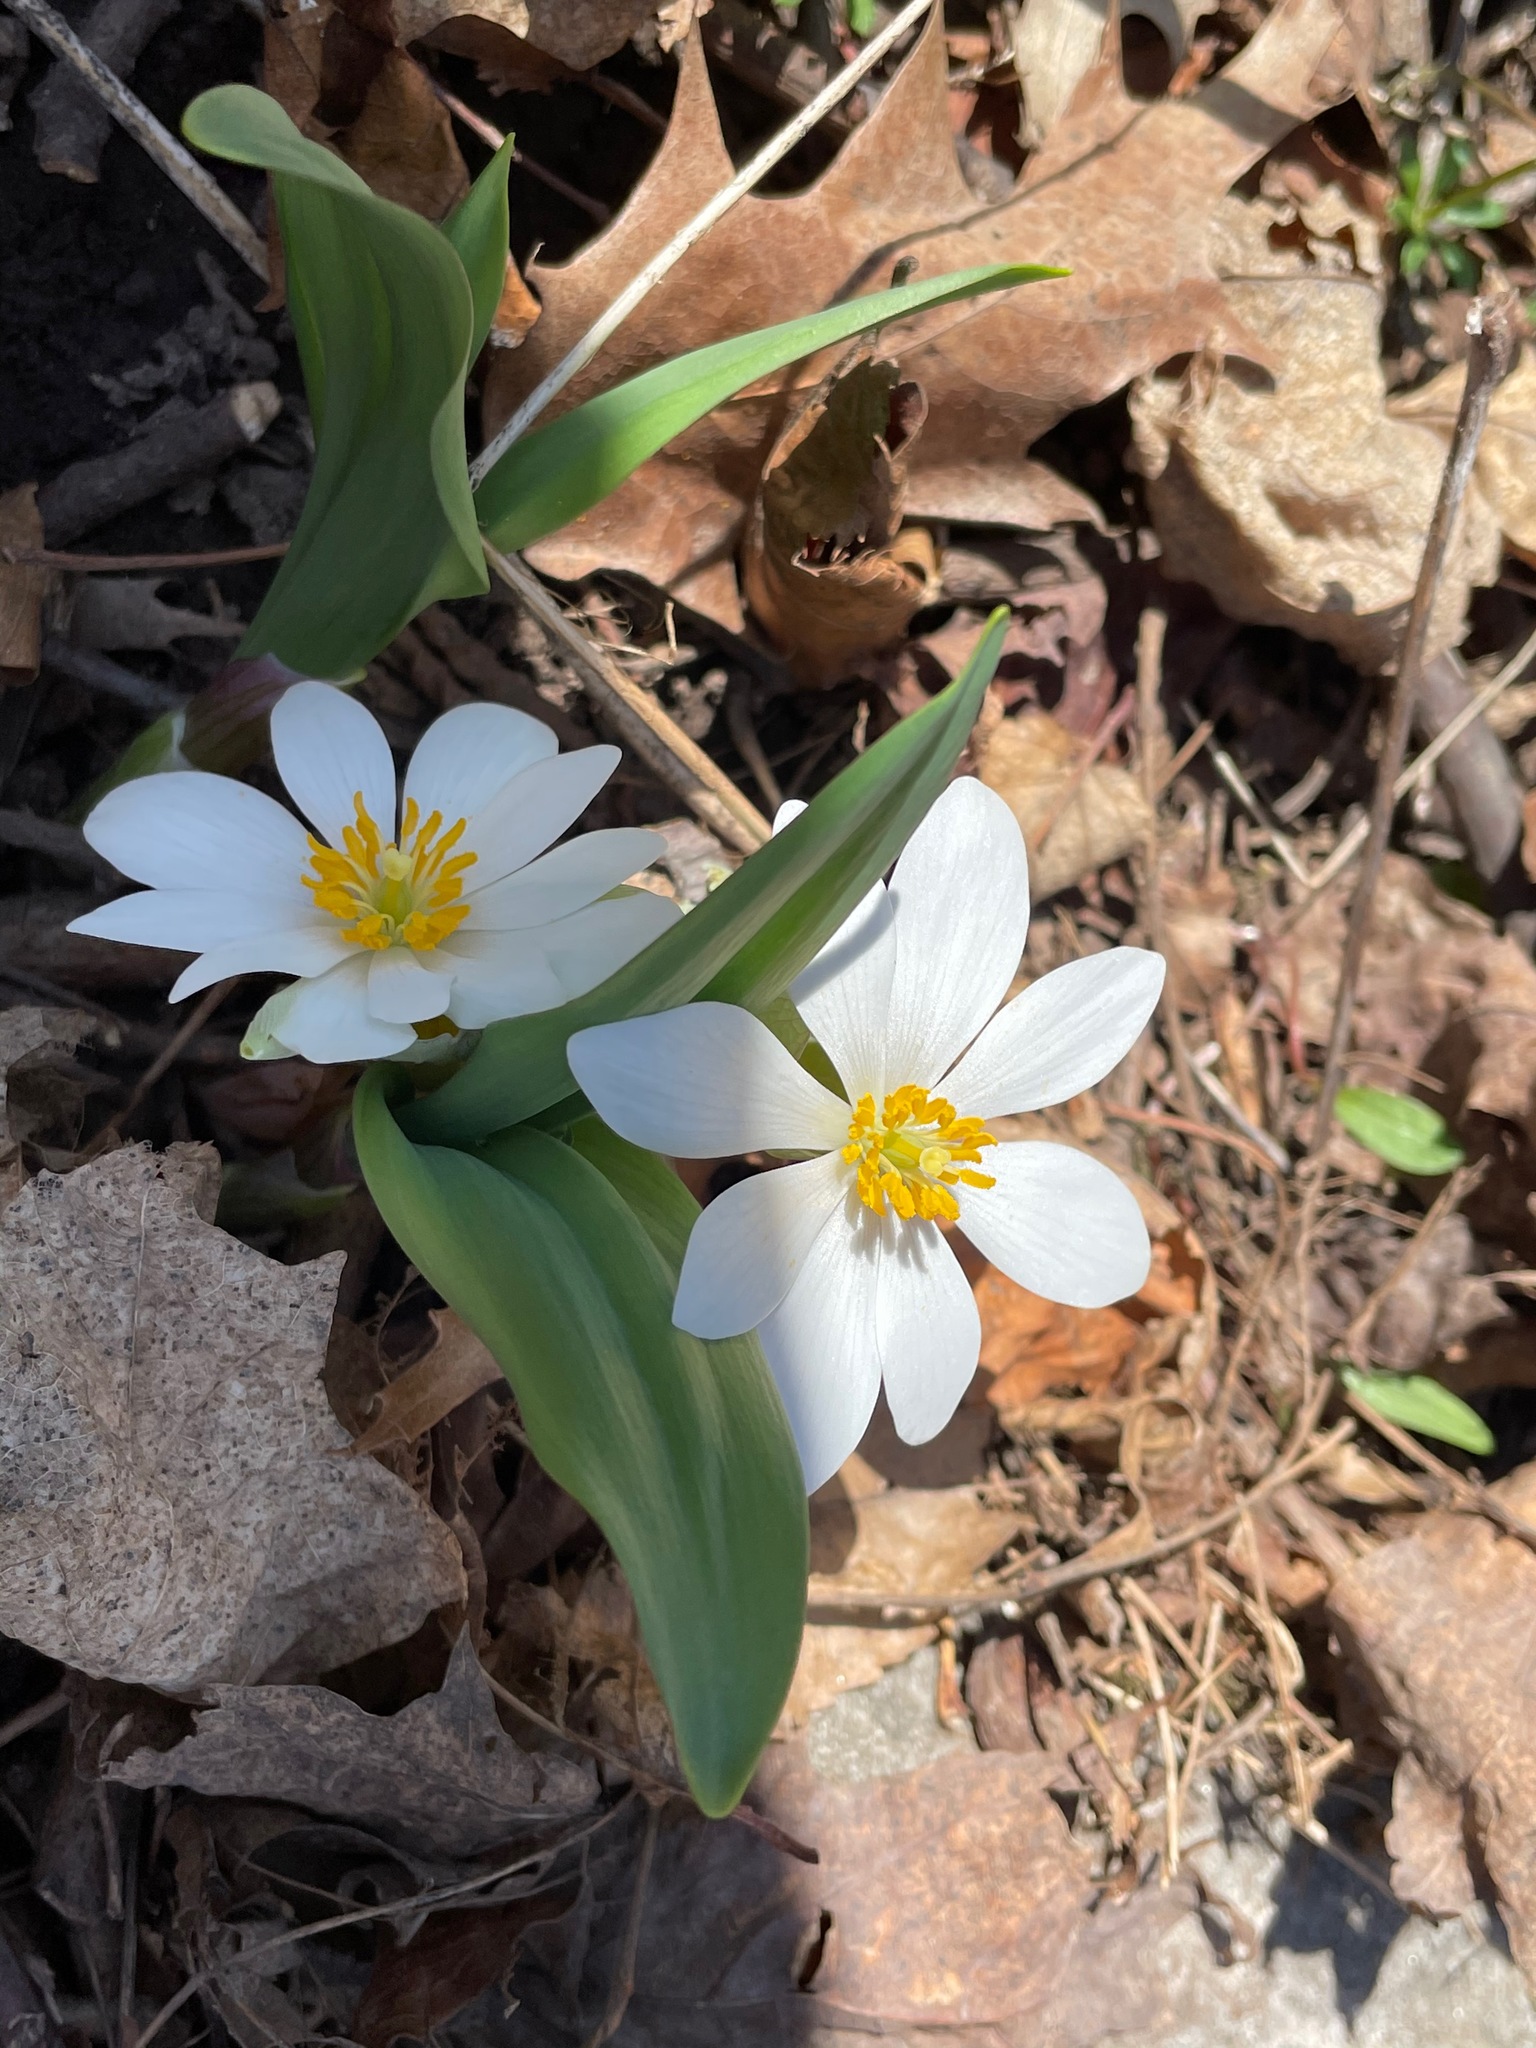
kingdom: Plantae
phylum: Tracheophyta
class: Magnoliopsida
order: Ranunculales
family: Papaveraceae
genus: Sanguinaria
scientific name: Sanguinaria canadensis
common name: Bloodroot
